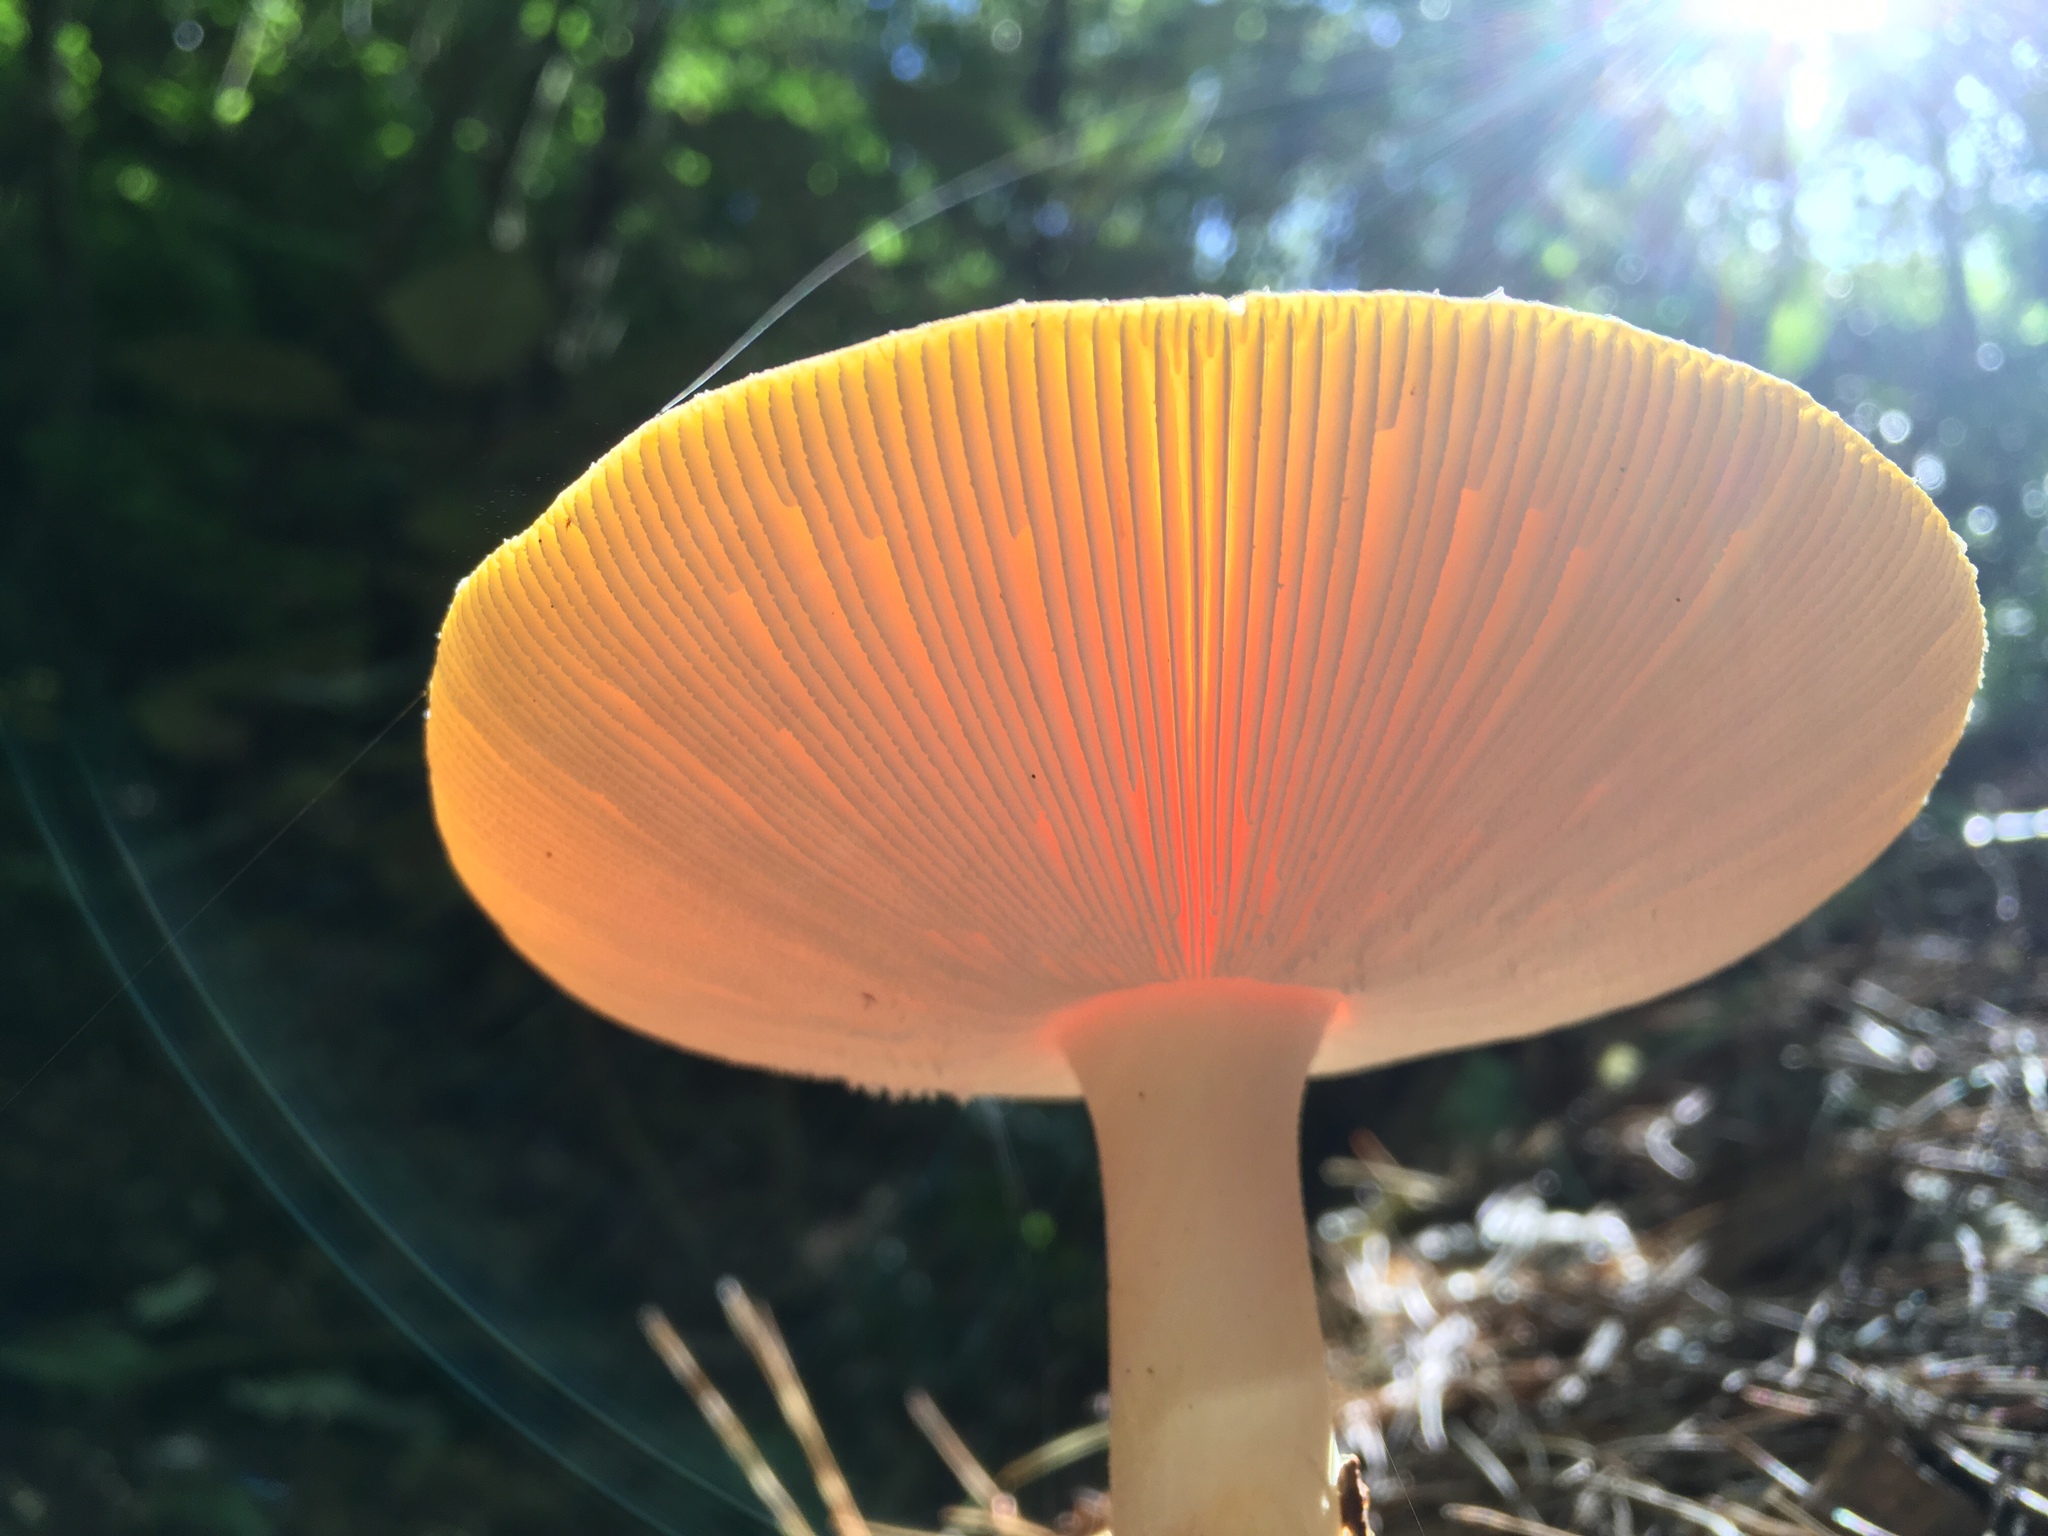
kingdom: Fungi
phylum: Basidiomycota
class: Agaricomycetes
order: Agaricales
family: Amanitaceae
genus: Amanita
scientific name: Amanita muscaria
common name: Fly agaric
